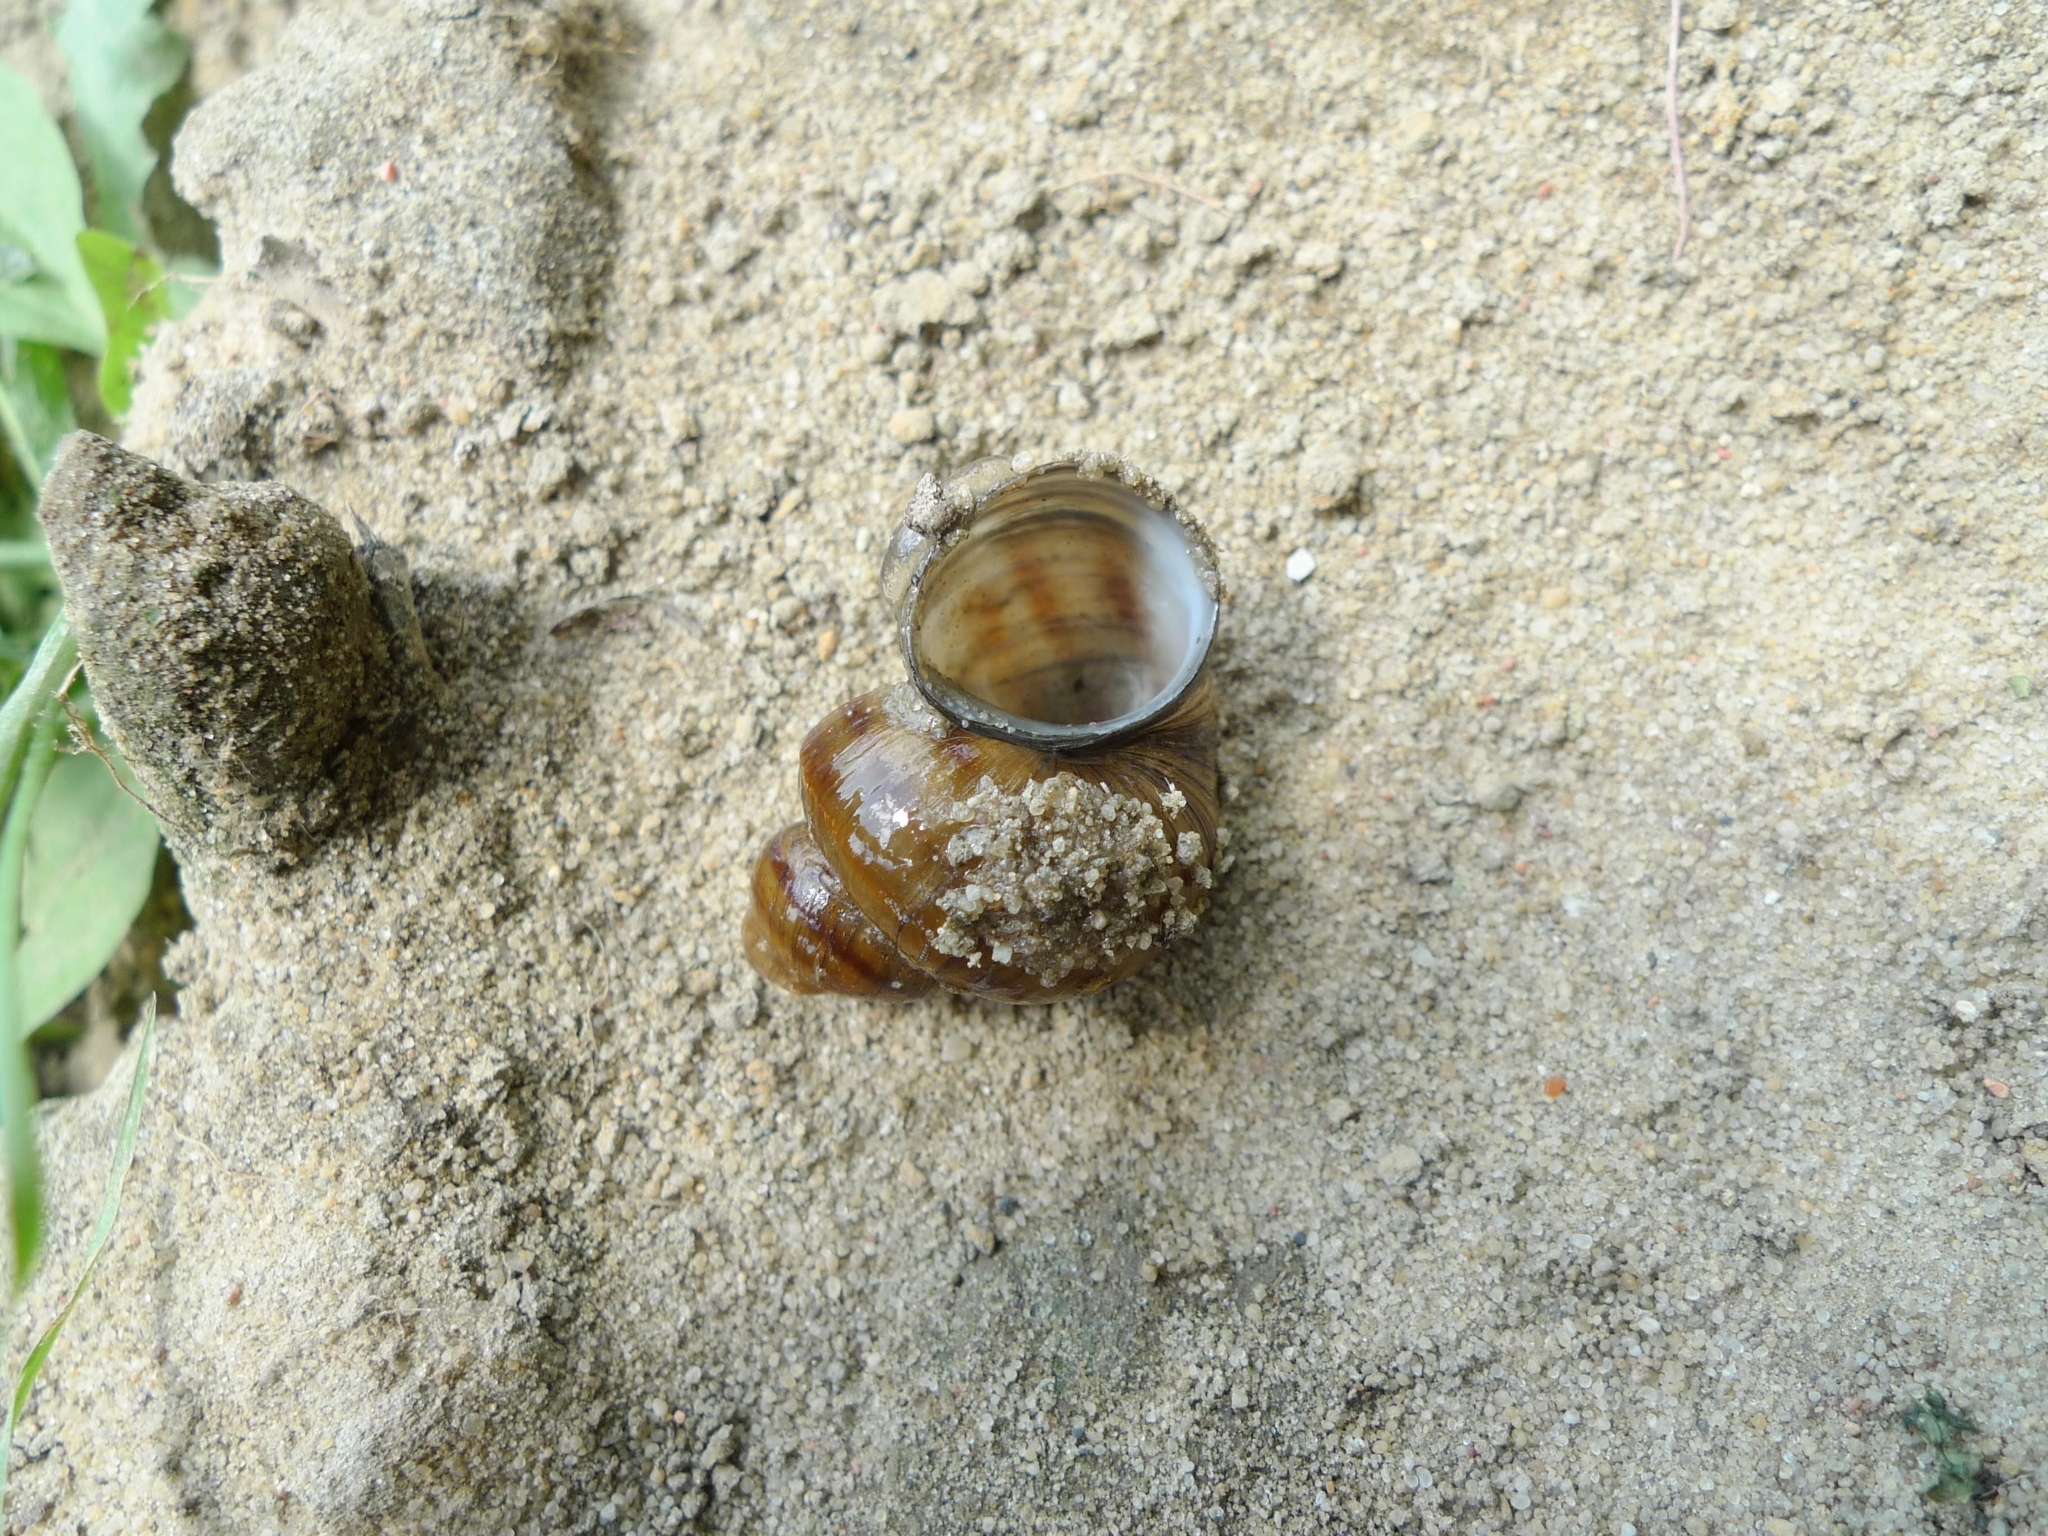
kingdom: Animalia
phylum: Mollusca
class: Gastropoda
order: Architaenioglossa
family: Viviparidae
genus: Viviparus
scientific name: Viviparus contectus
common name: Lister's river snail
